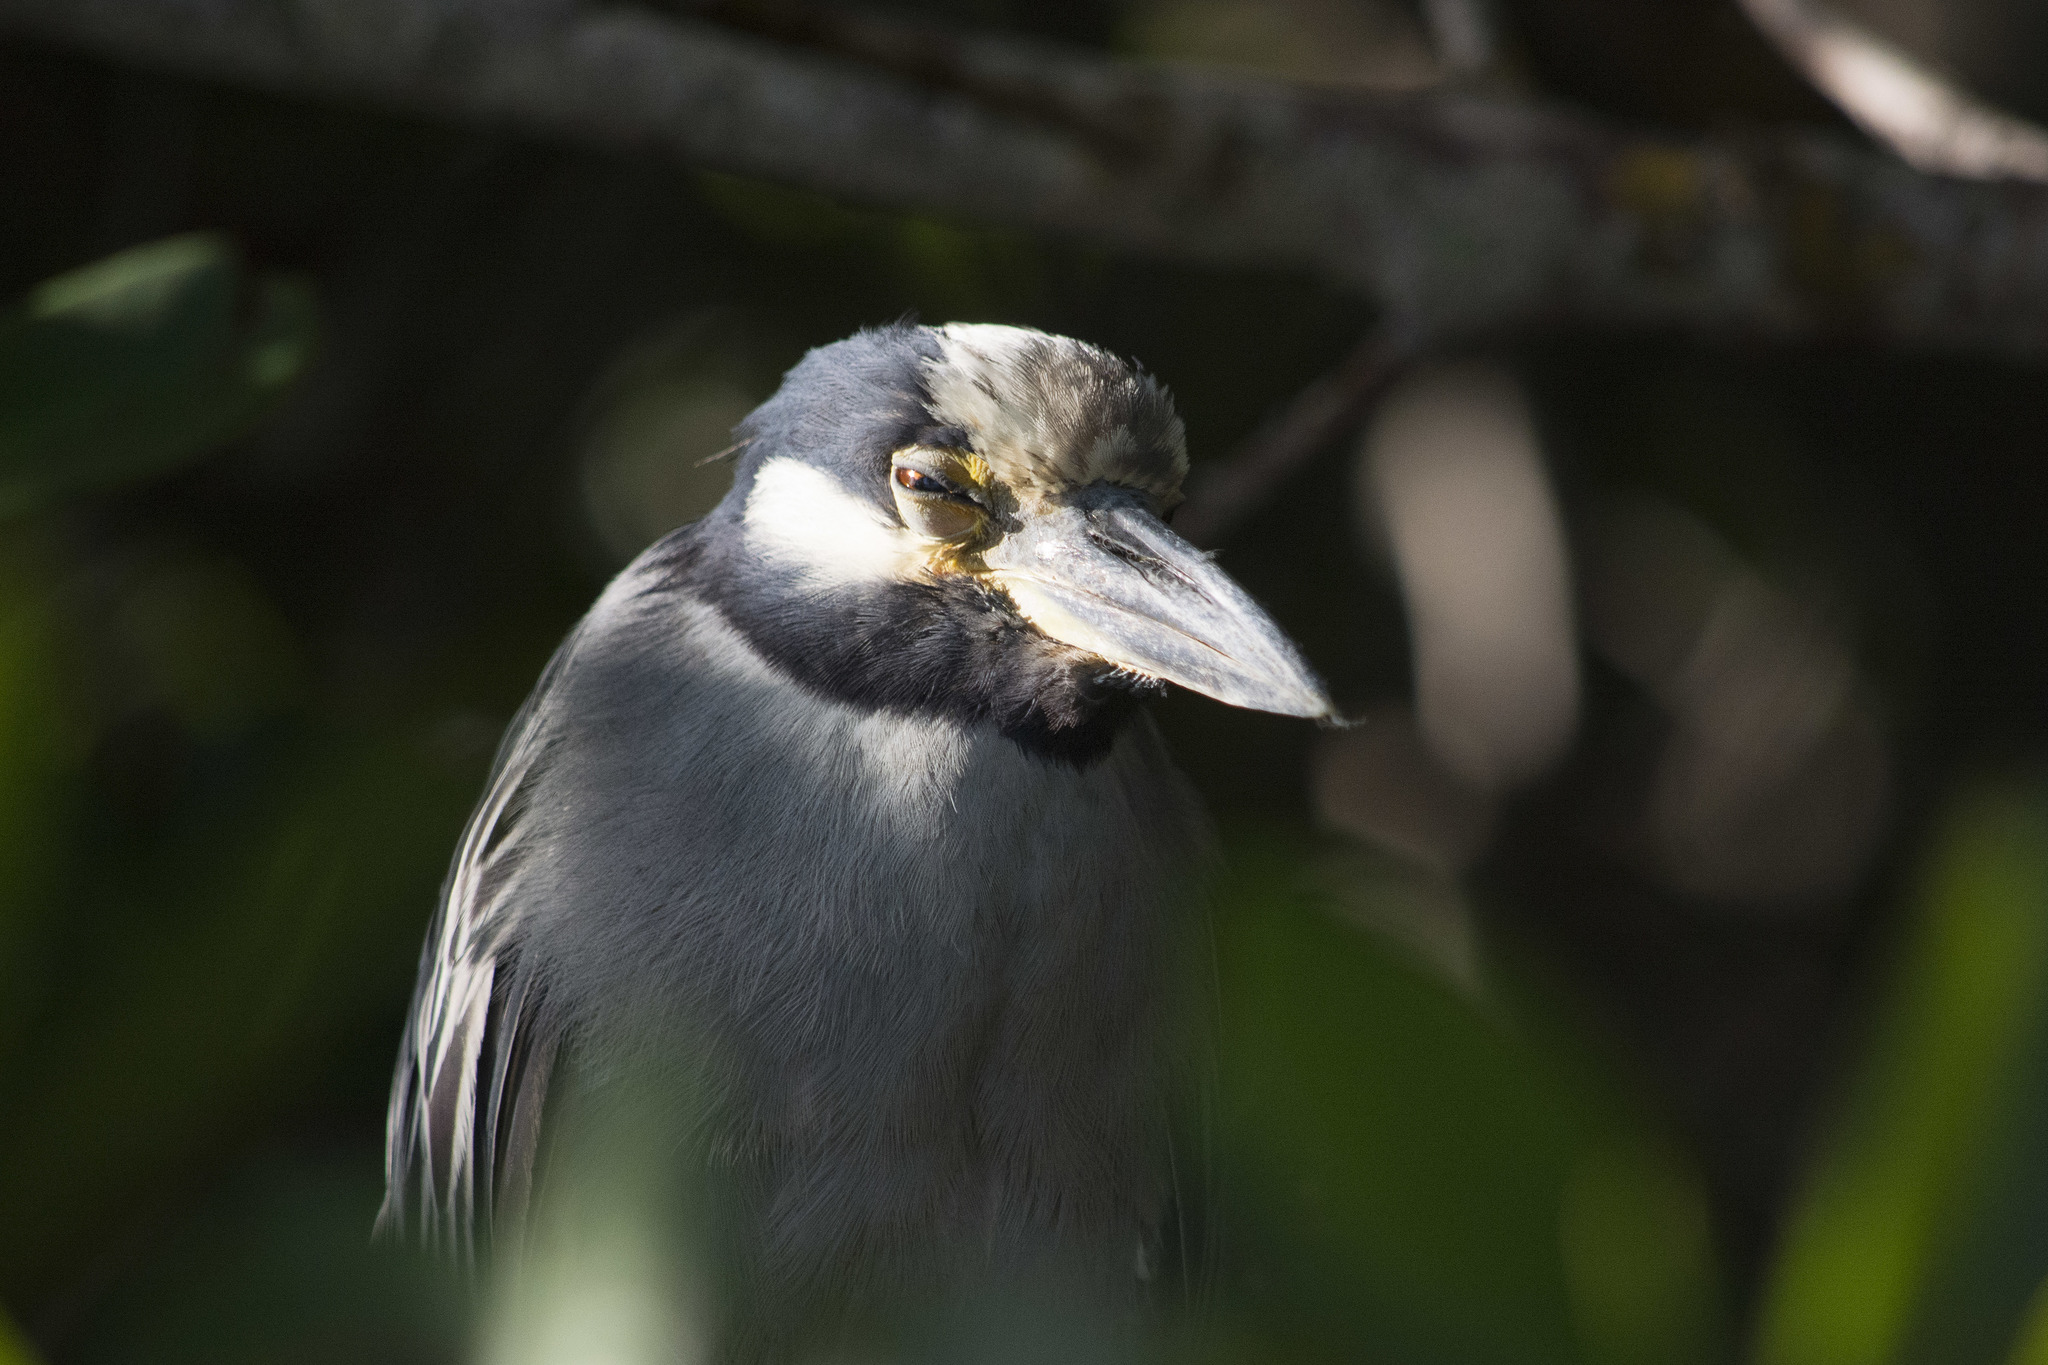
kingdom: Animalia
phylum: Chordata
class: Aves
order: Pelecaniformes
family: Ardeidae
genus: Nyctanassa
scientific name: Nyctanassa violacea
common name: Yellow-crowned night heron
